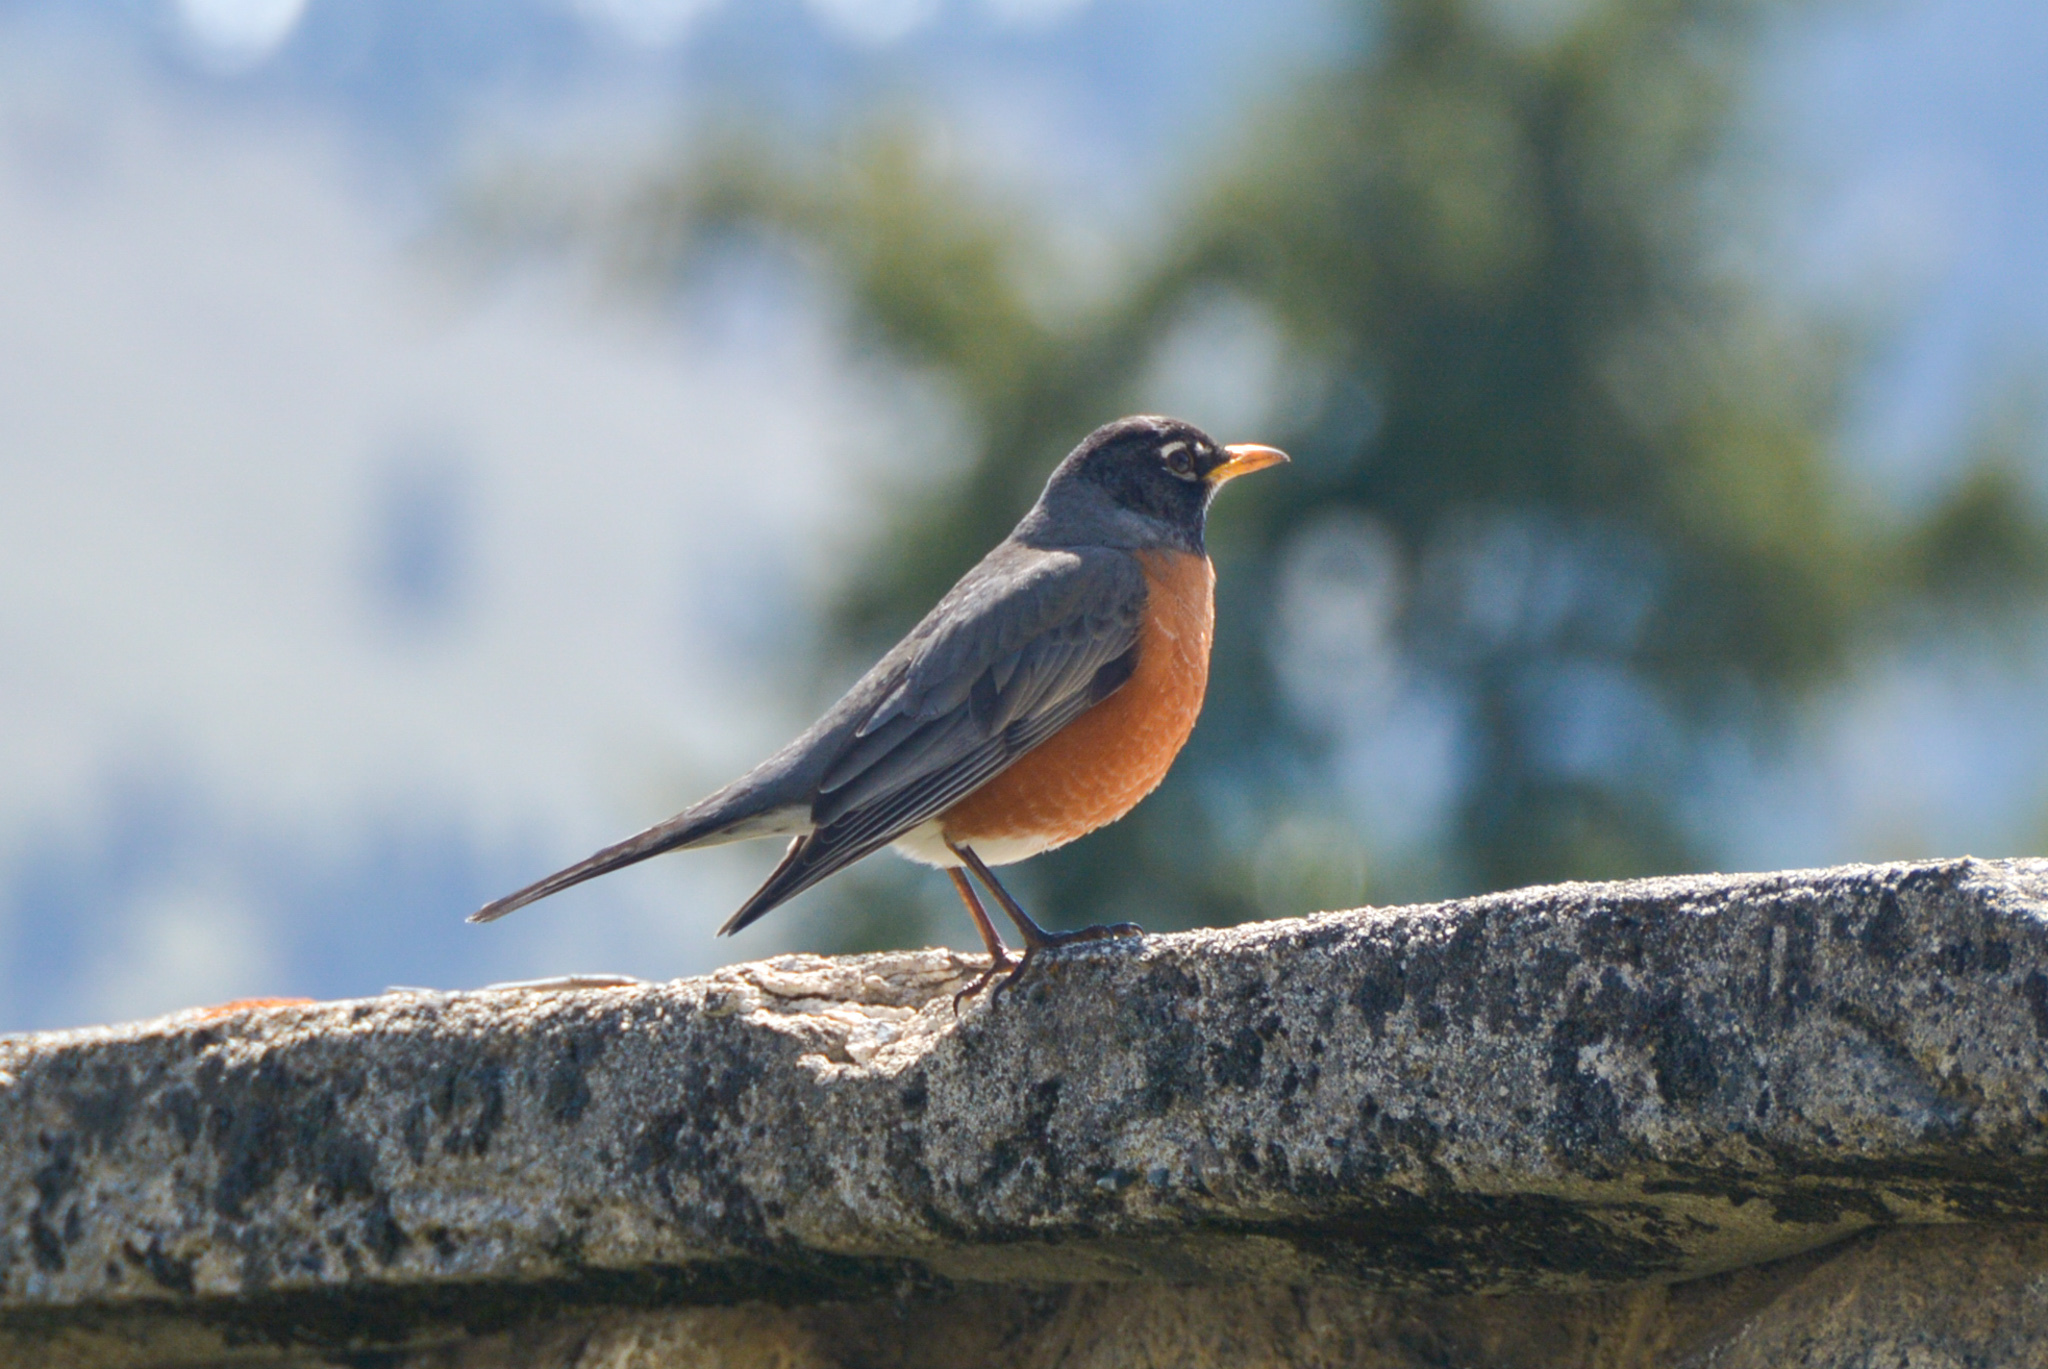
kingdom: Animalia
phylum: Chordata
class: Aves
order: Passeriformes
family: Turdidae
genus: Turdus
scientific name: Turdus migratorius
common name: American robin
